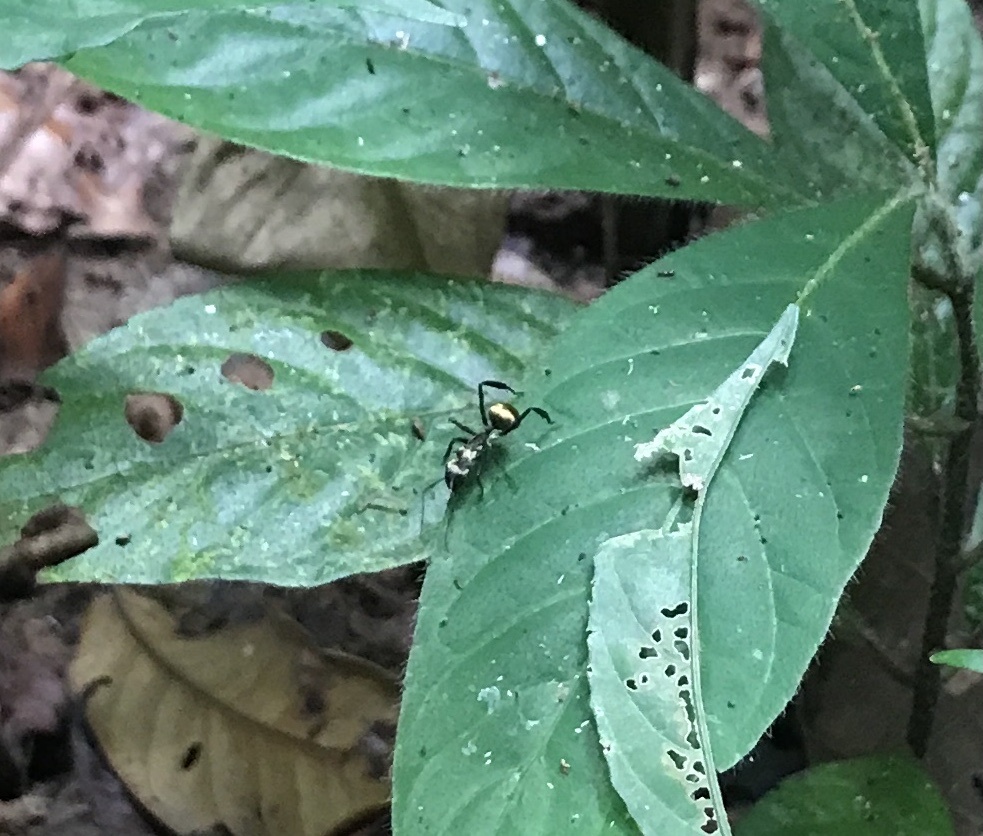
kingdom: Animalia
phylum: Arthropoda
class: Insecta
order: Hymenoptera
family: Formicidae
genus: Camponotus
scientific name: Camponotus sericeiventris
